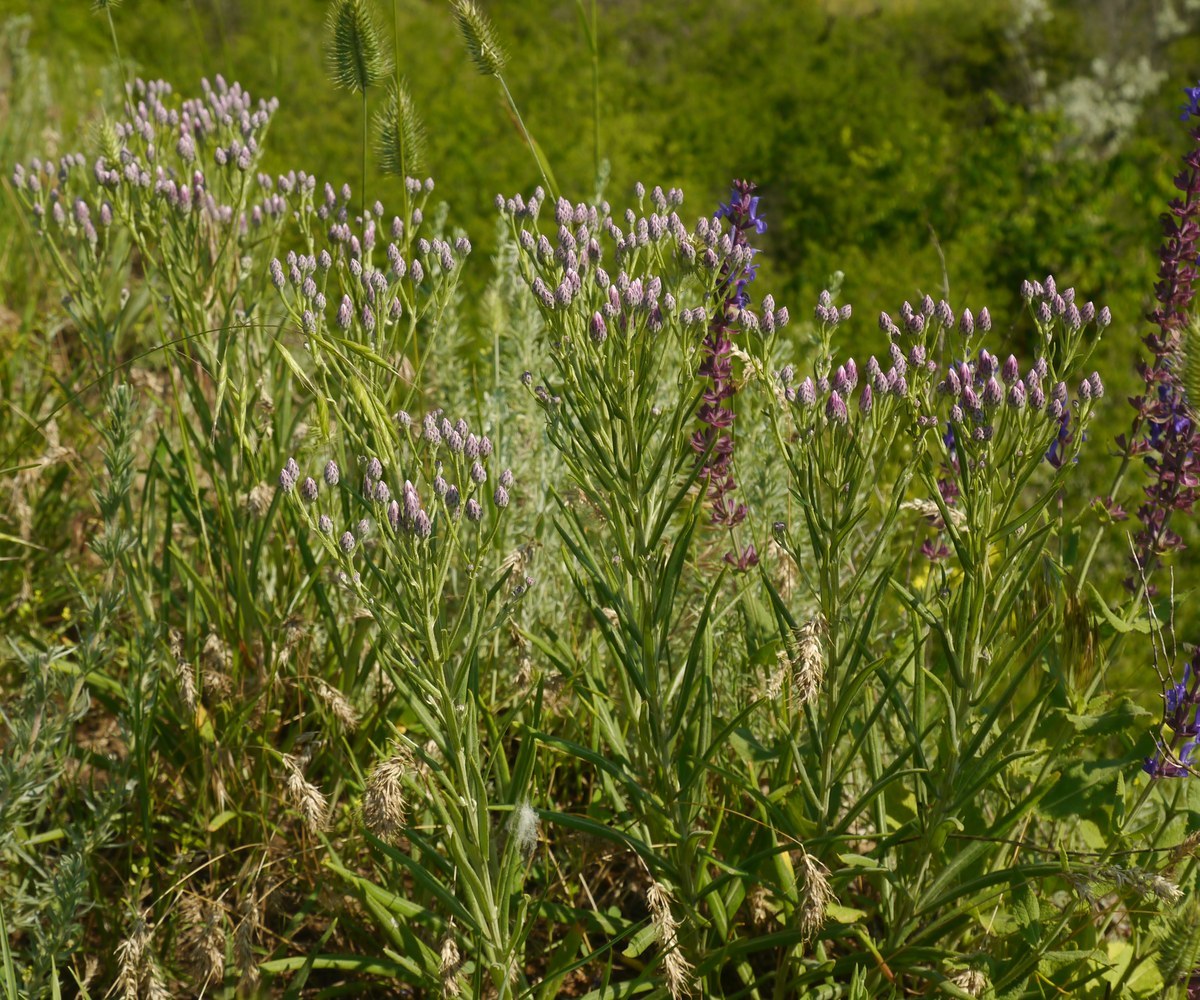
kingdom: Plantae
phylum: Tracheophyta
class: Magnoliopsida
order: Asterales
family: Asteraceae
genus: Jurinea
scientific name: Jurinea stoechadifolia
